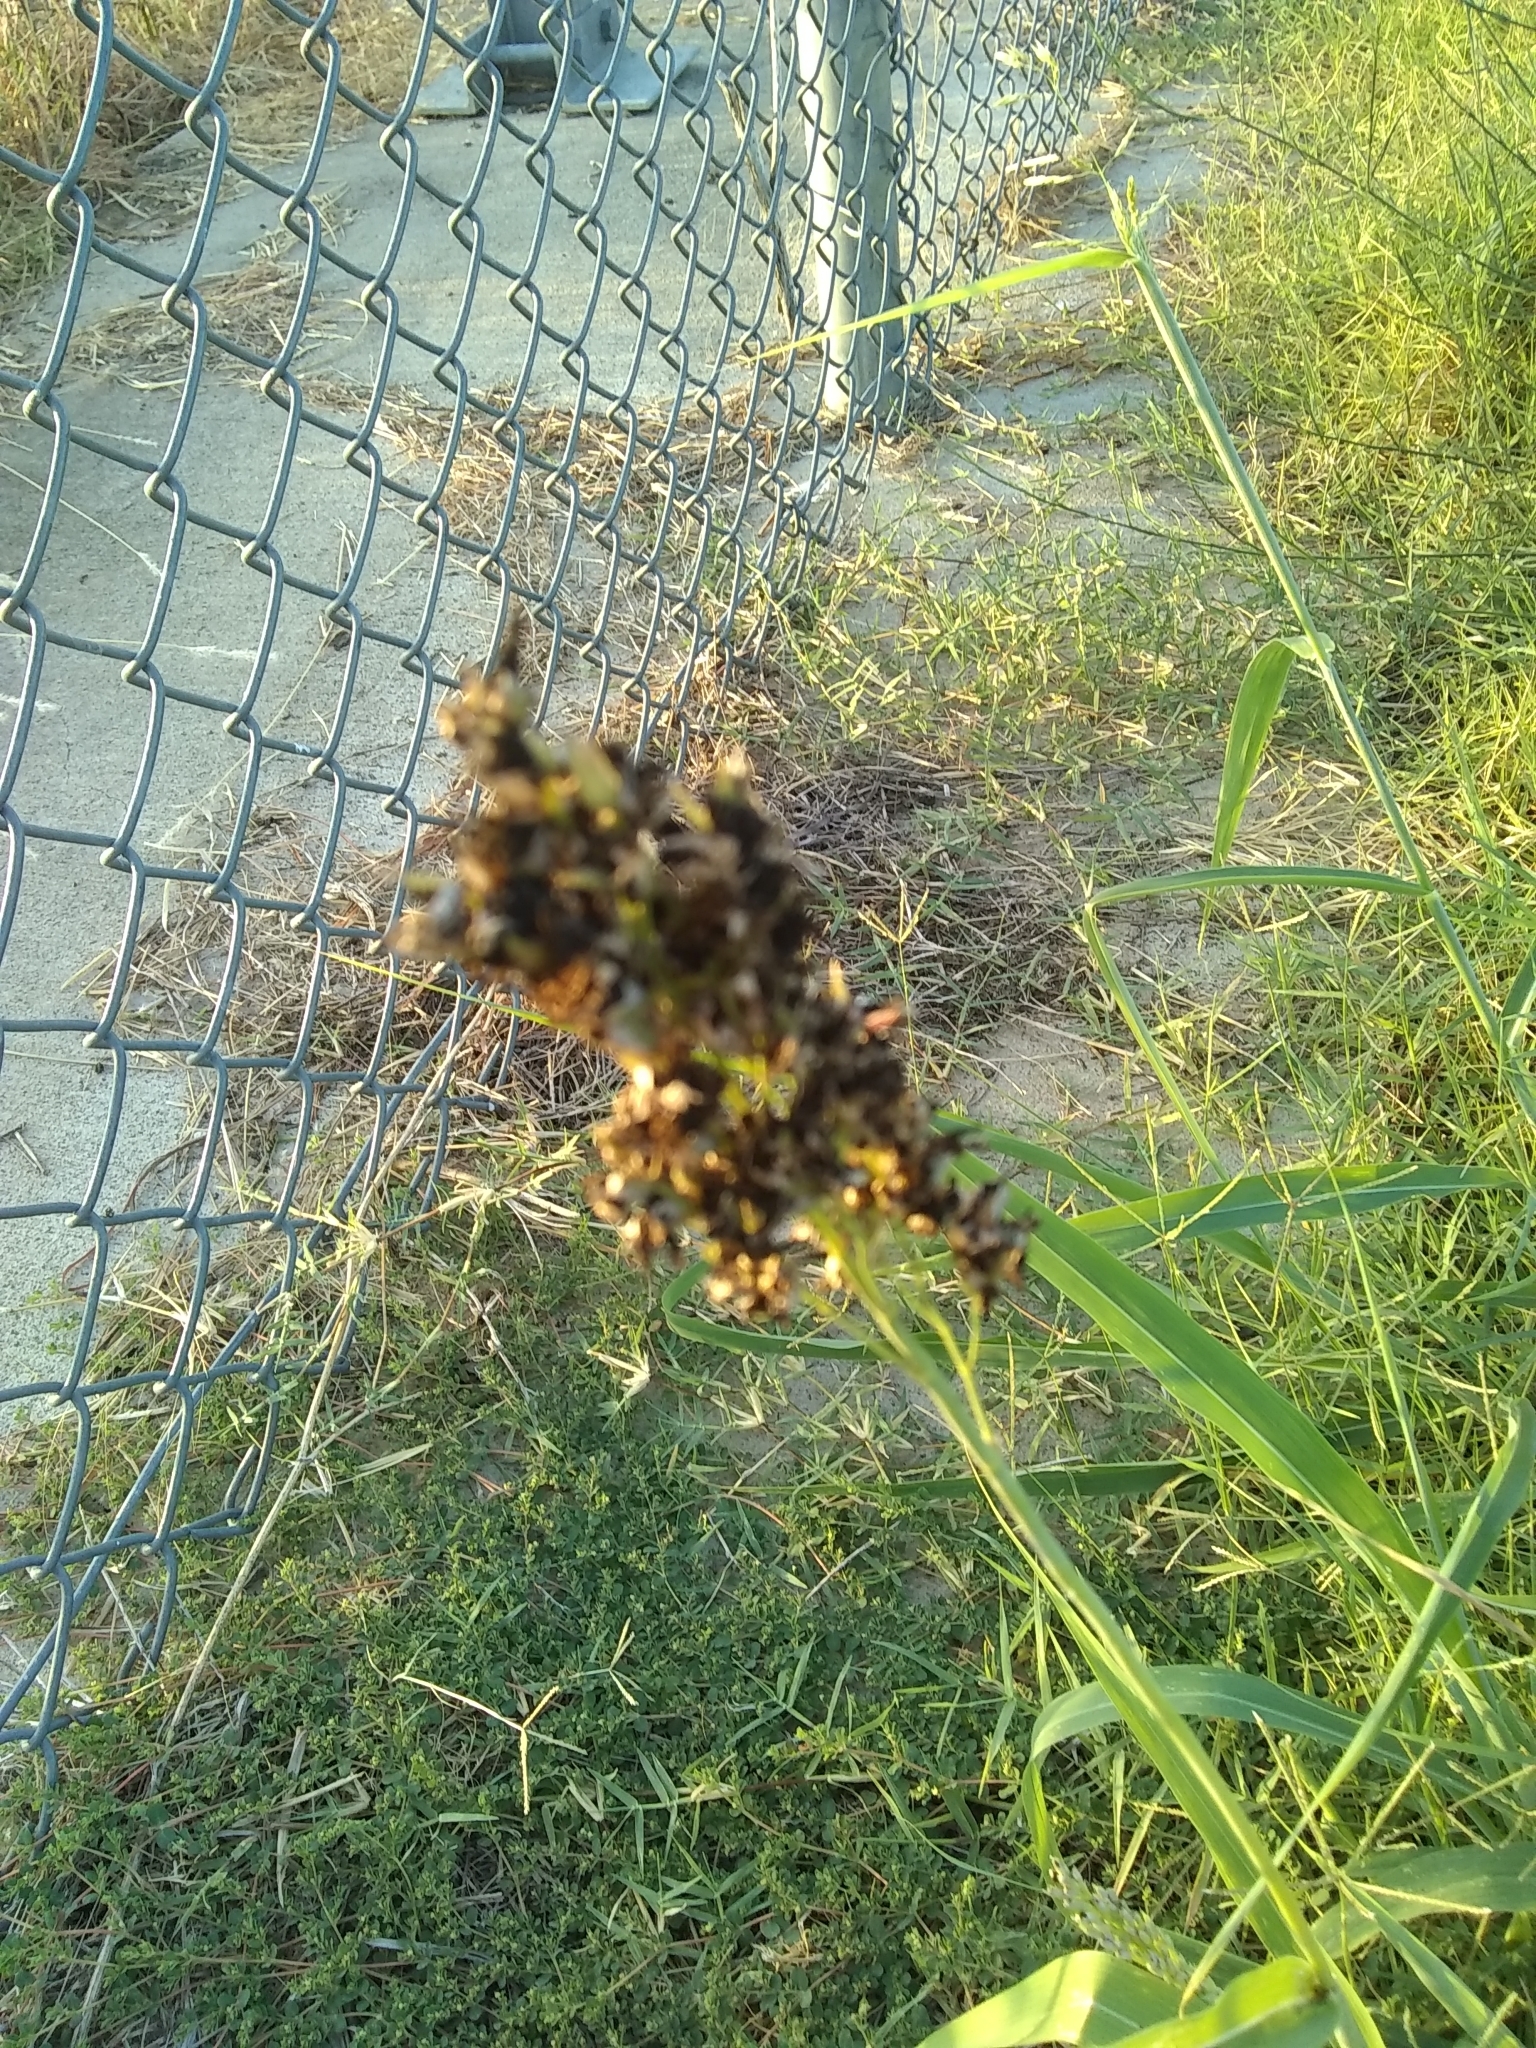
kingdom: Plantae
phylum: Tracheophyta
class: Liliopsida
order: Poales
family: Poaceae
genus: Sorghum
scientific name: Sorghum halepense
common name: Johnson-grass
